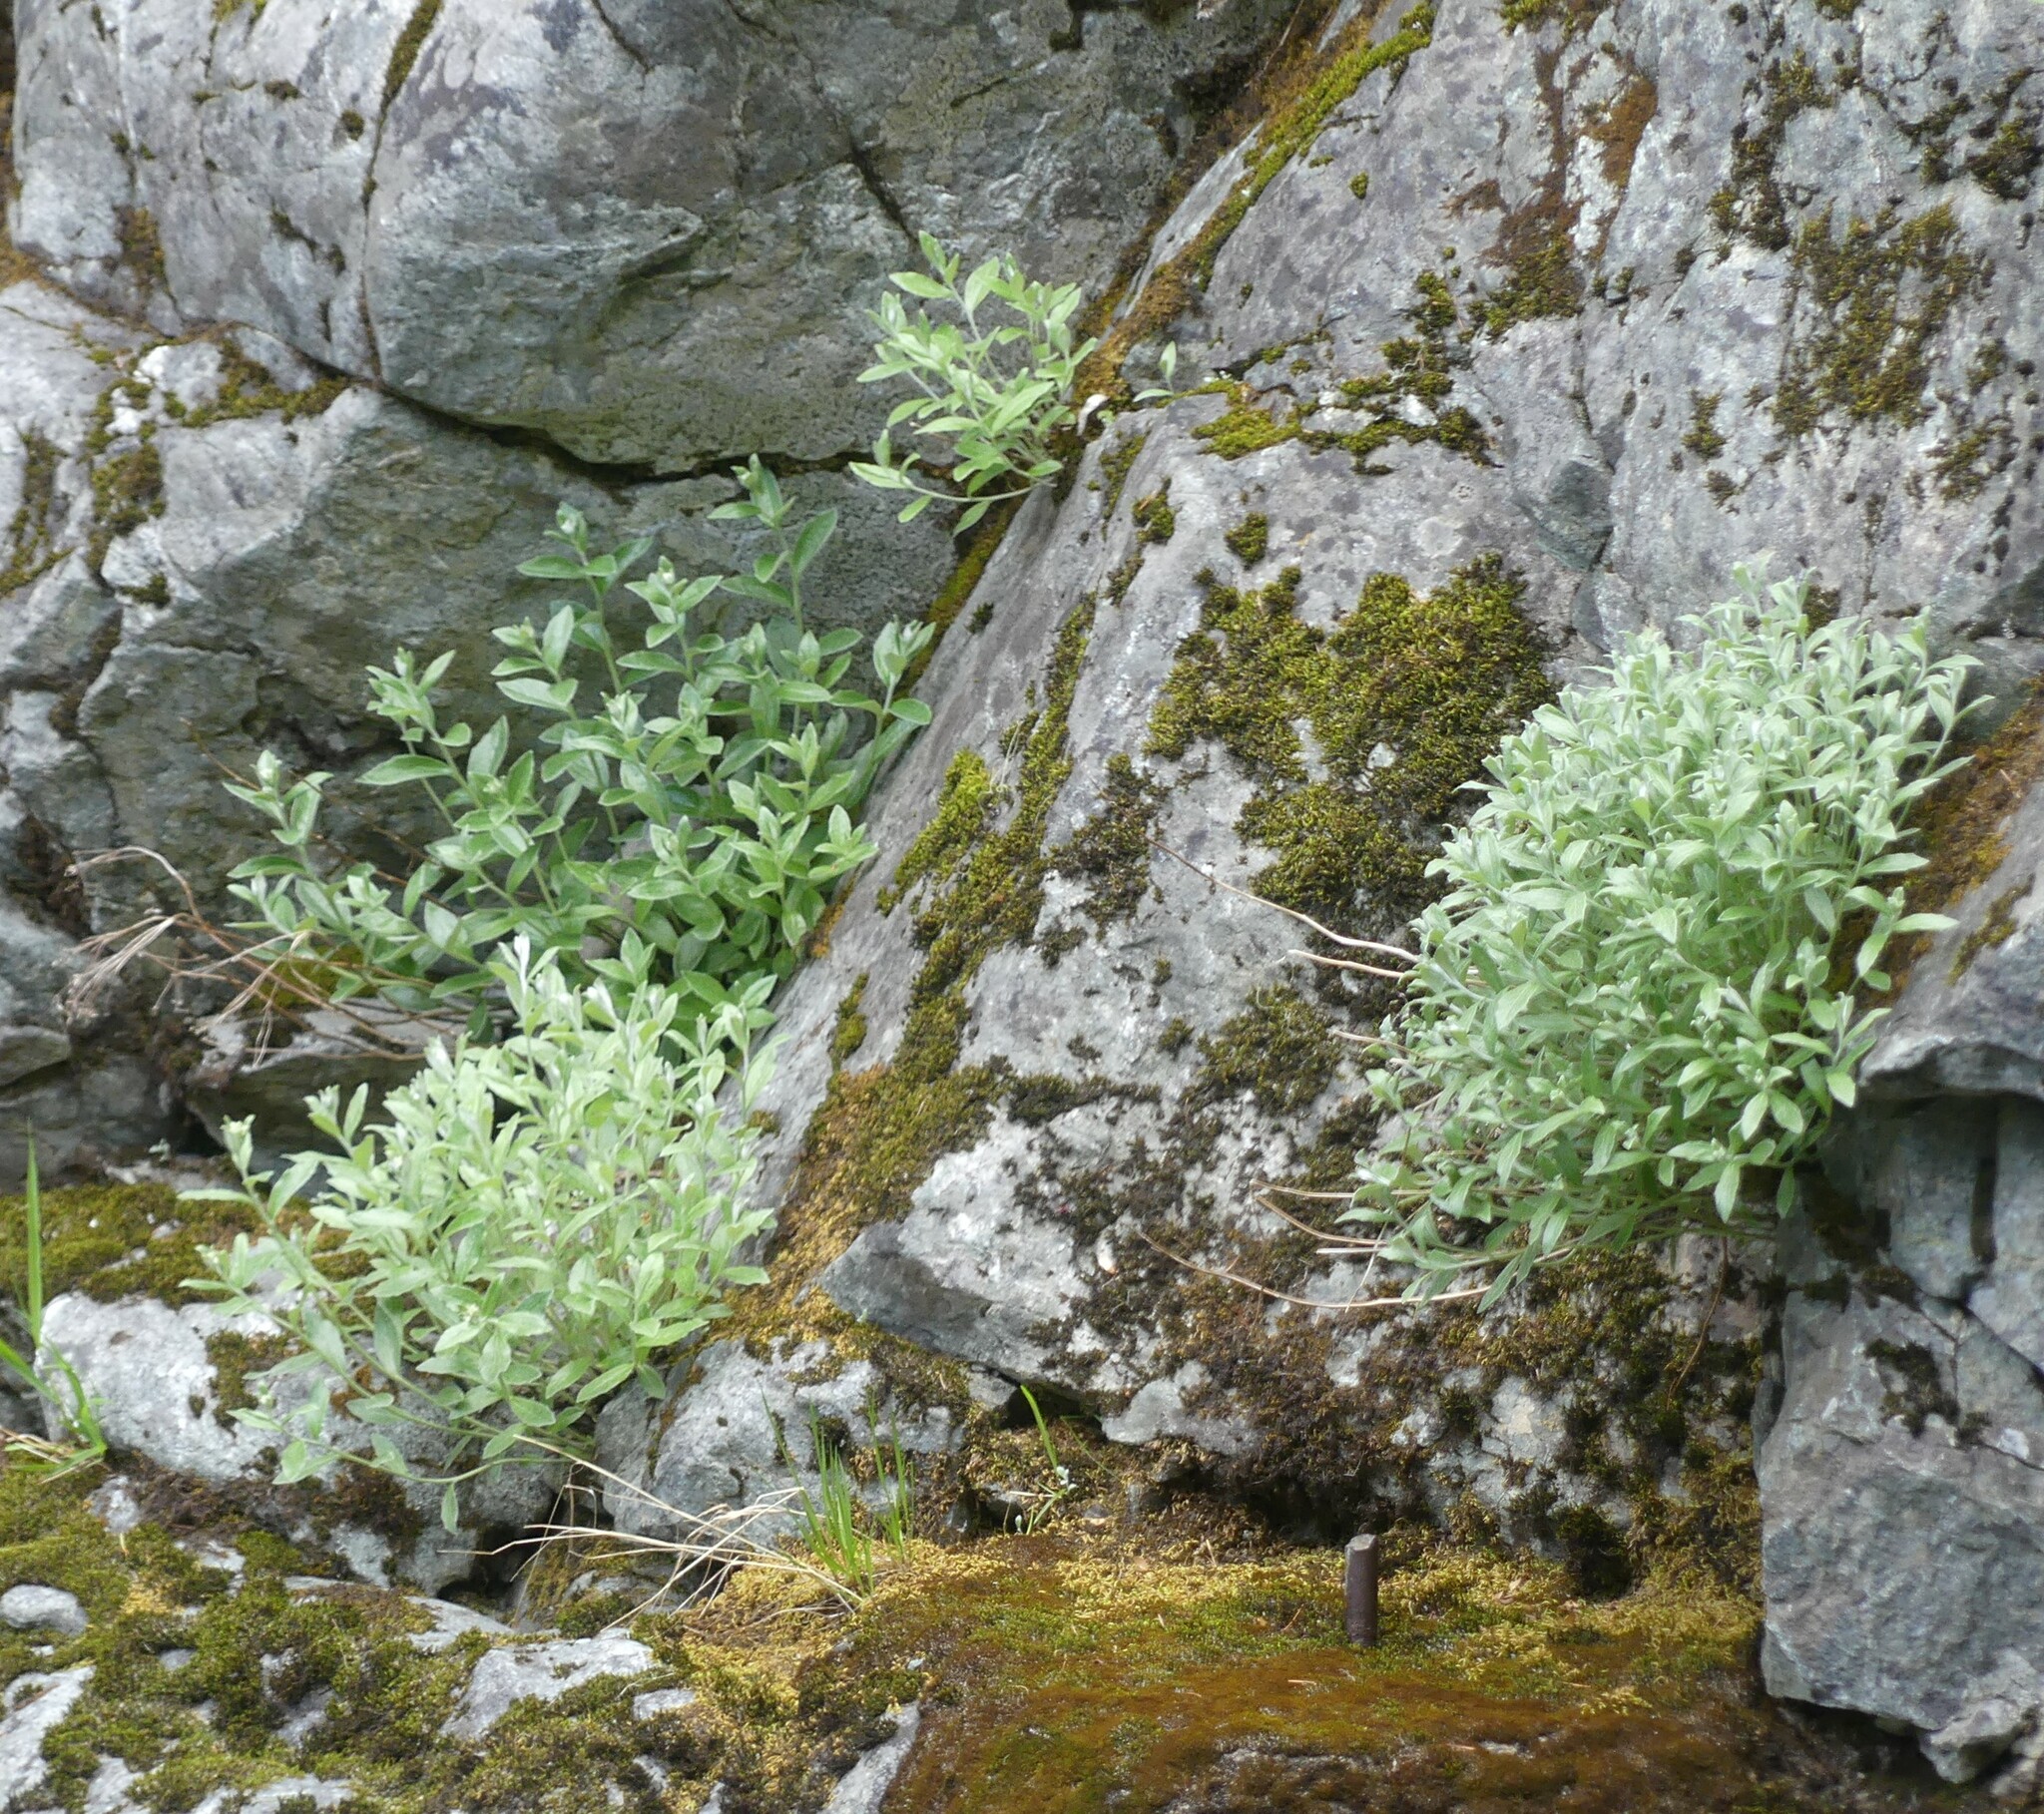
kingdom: Plantae
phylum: Tracheophyta
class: Magnoliopsida
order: Asterales
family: Asteraceae
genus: Luina
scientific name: Luina hypoleuca
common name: Little-leaved luina
